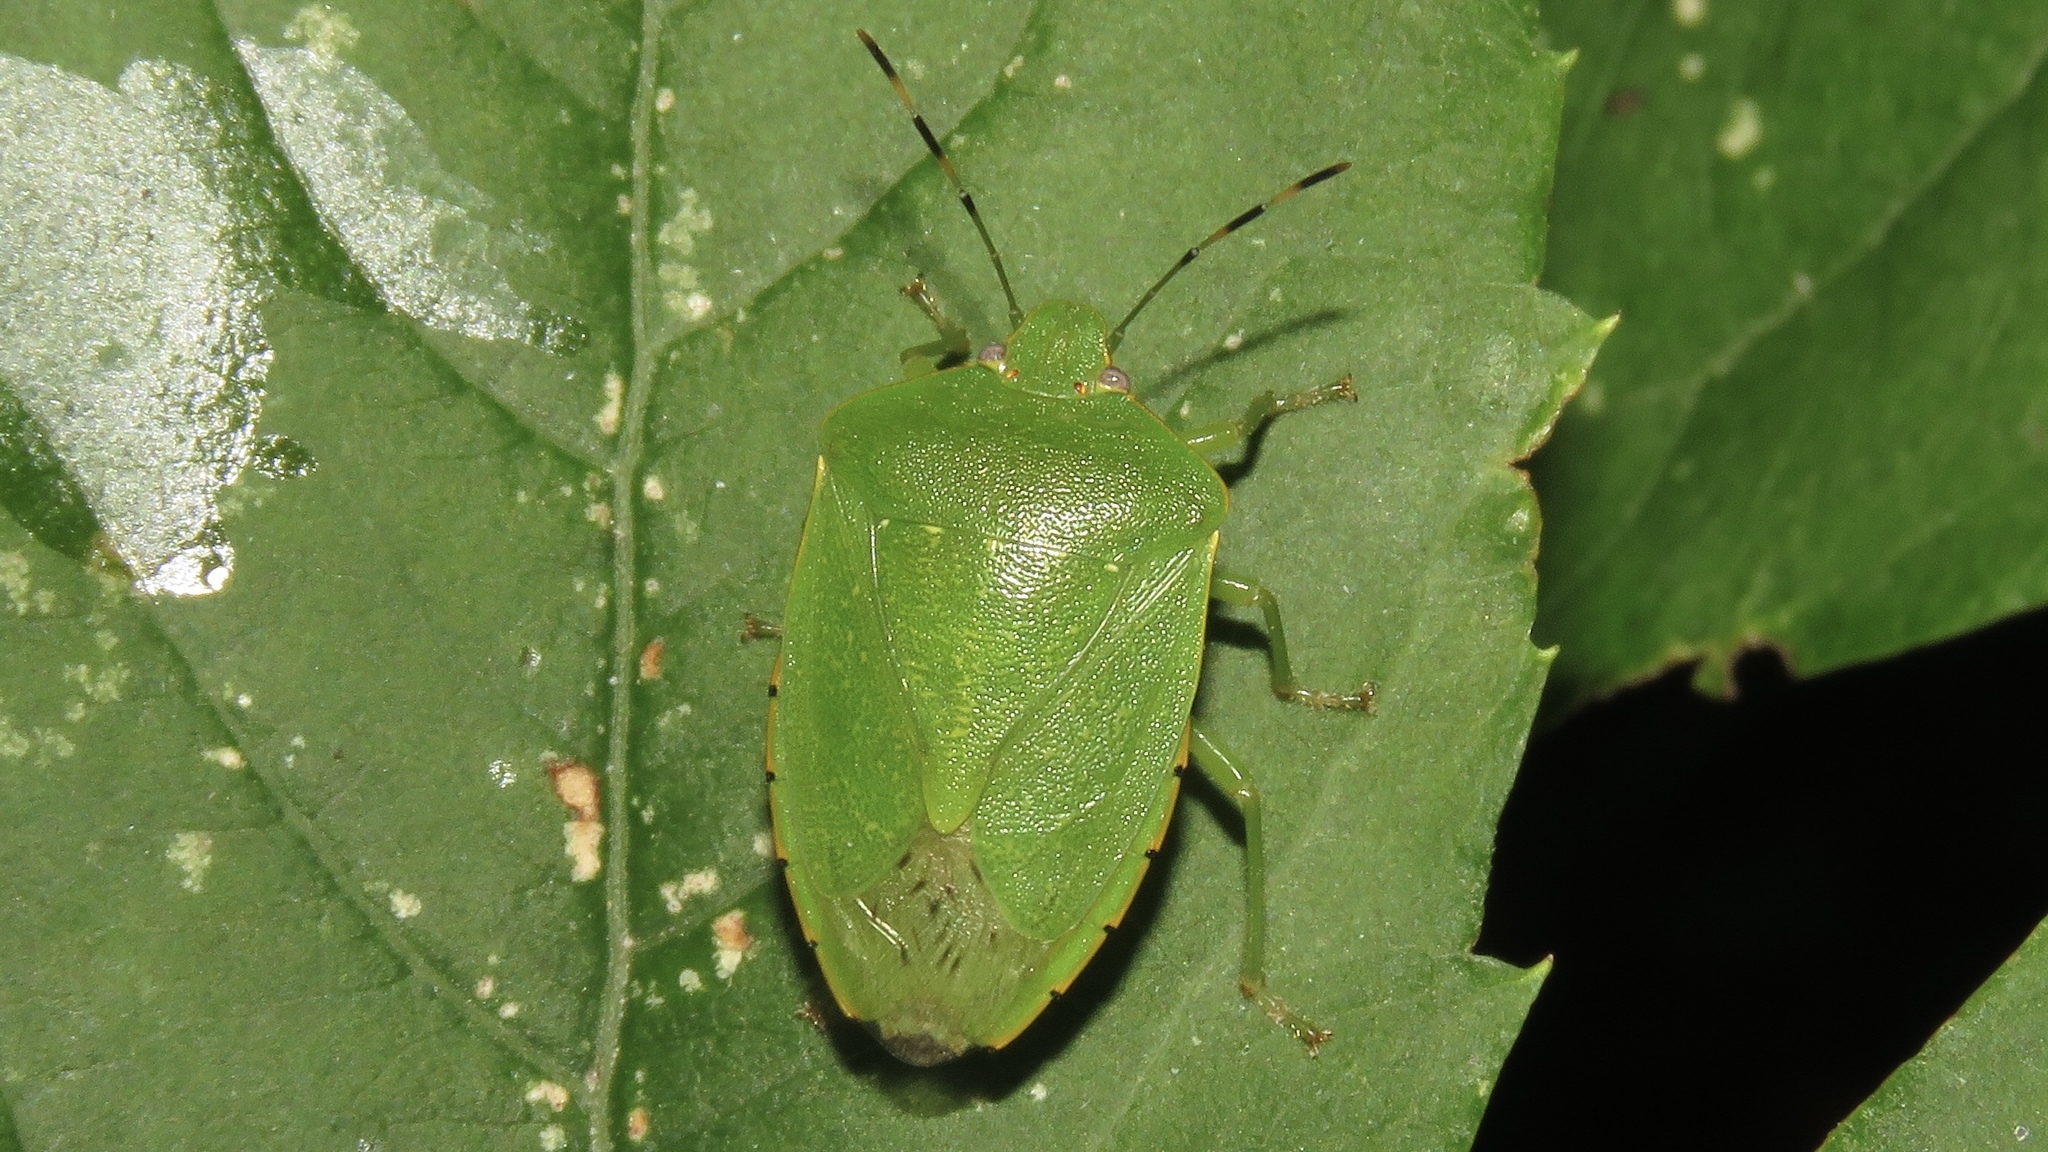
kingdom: Animalia
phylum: Arthropoda
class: Insecta
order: Hemiptera
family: Pentatomidae
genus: Chinavia
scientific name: Chinavia hilaris
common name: Green stink bug
